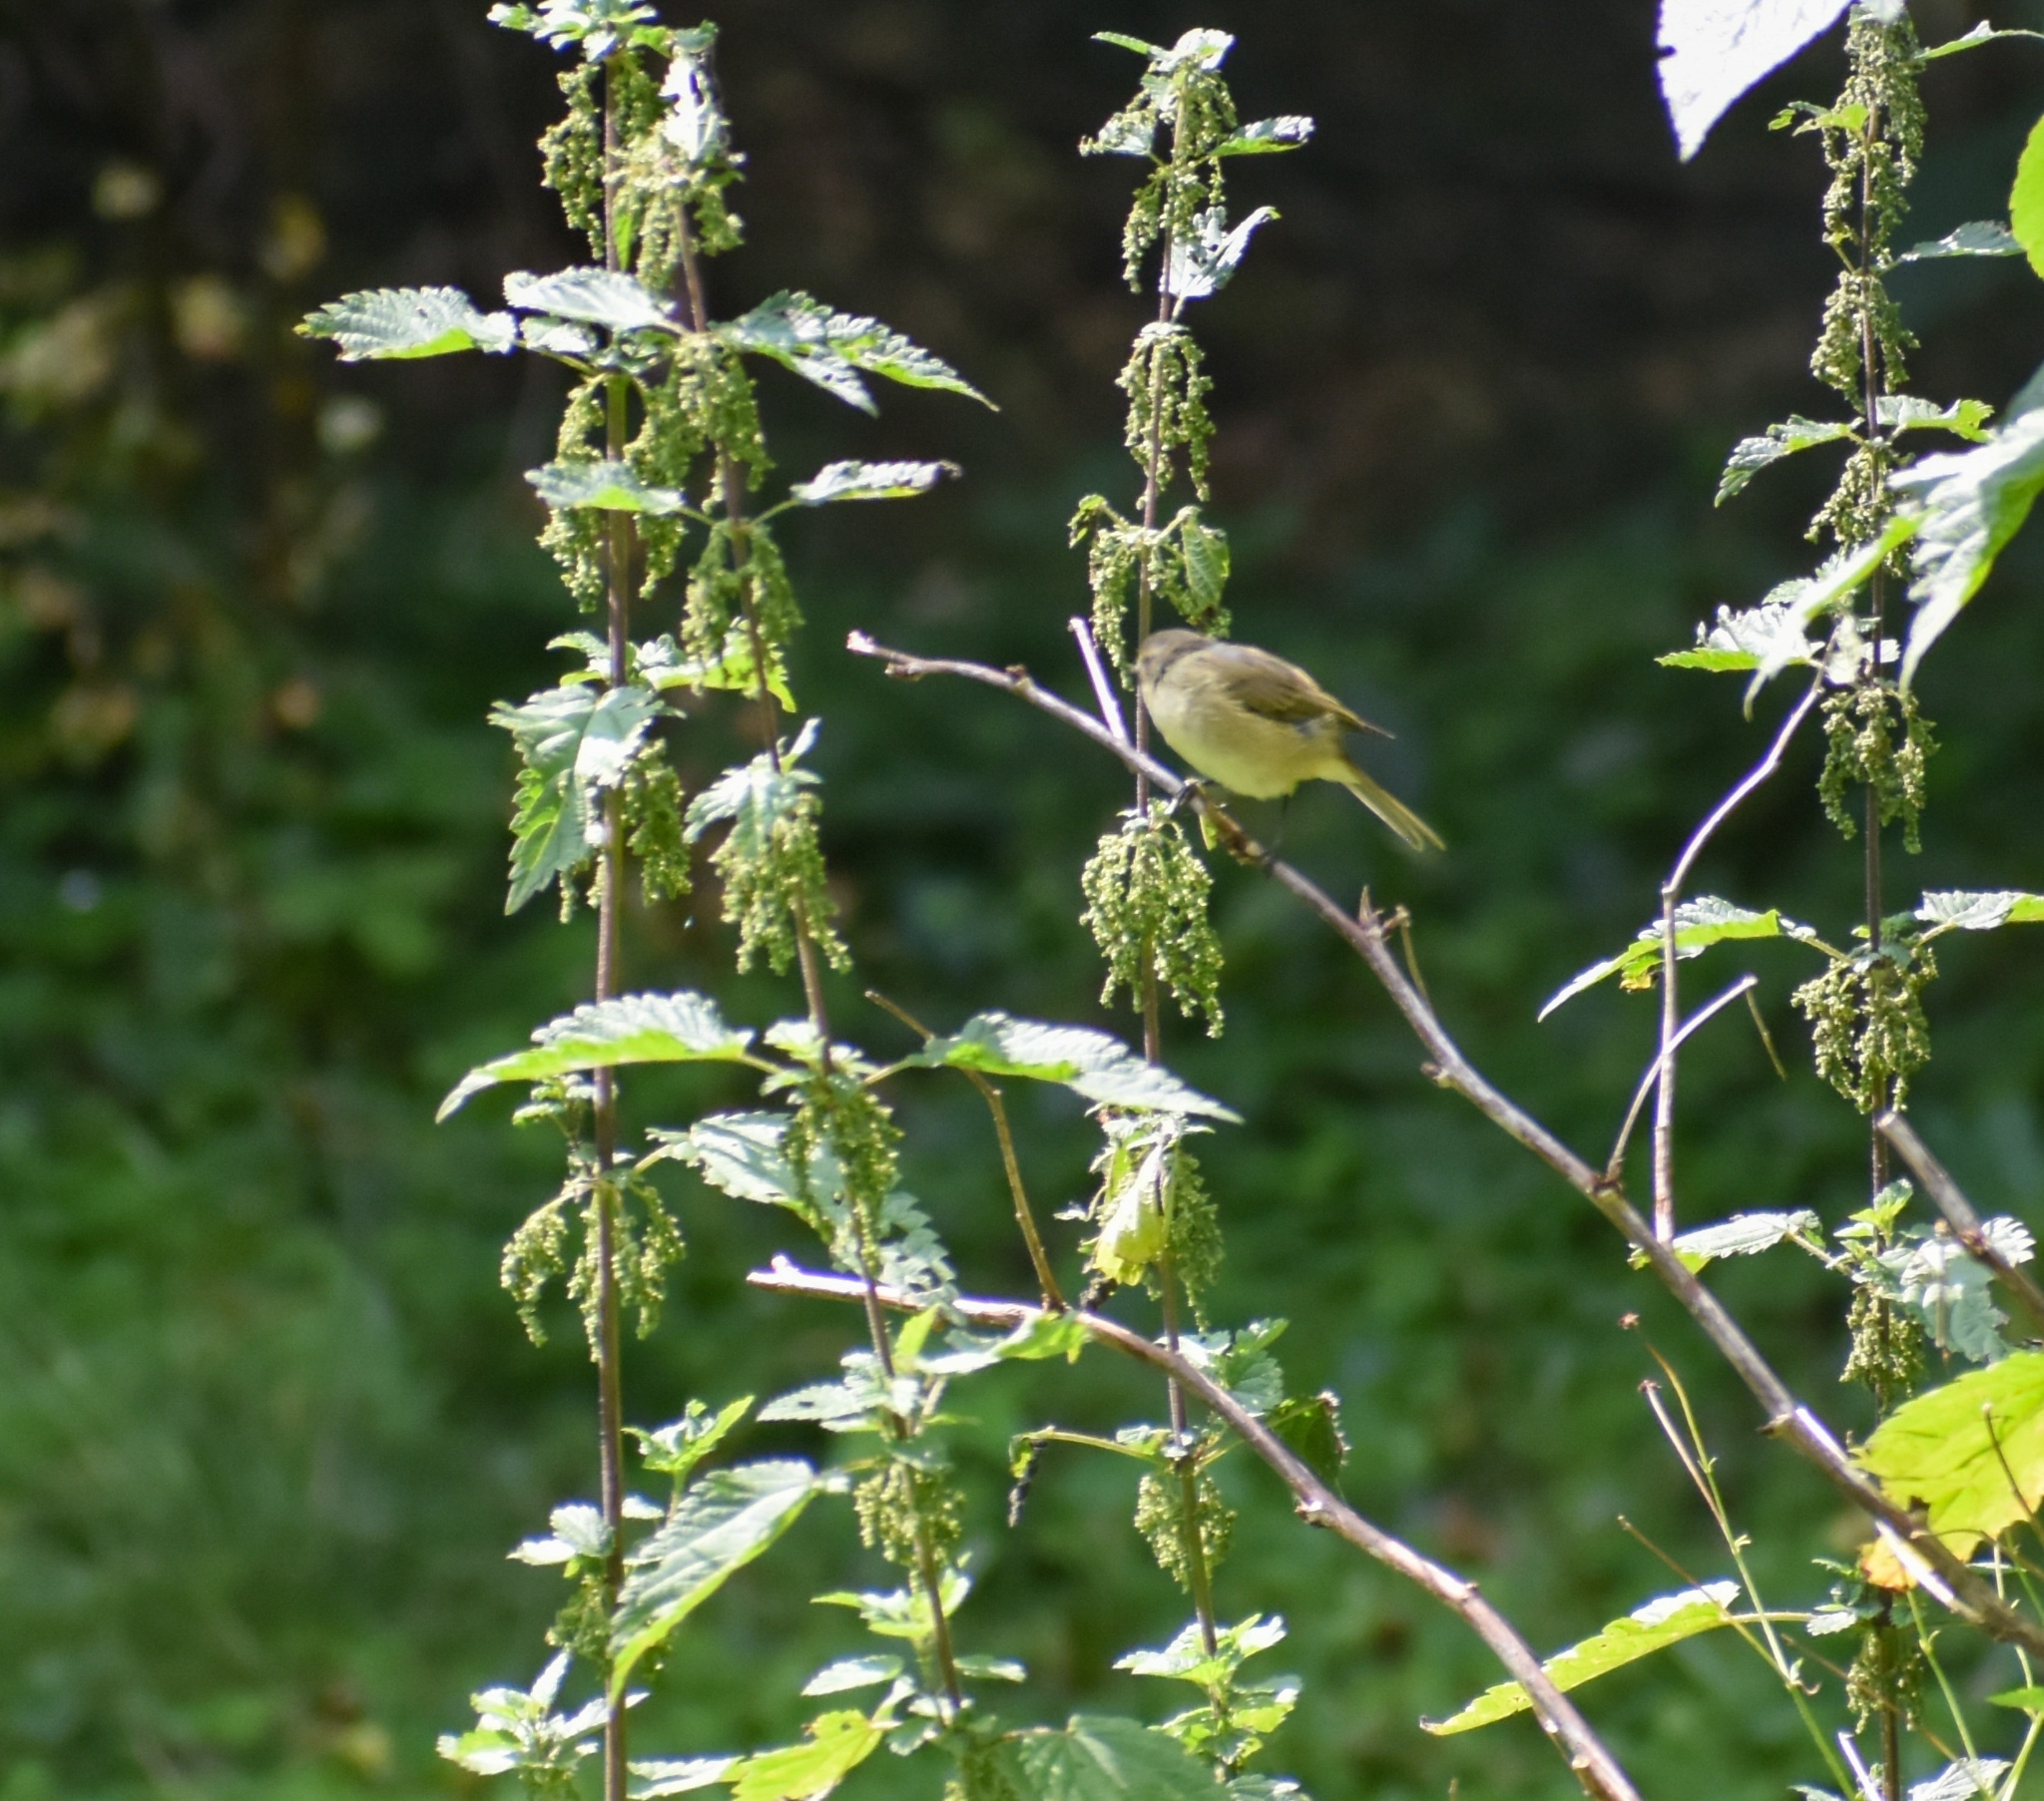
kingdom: Animalia
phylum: Chordata
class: Aves
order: Passeriformes
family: Phylloscopidae
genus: Phylloscopus
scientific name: Phylloscopus collybita
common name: Common chiffchaff
